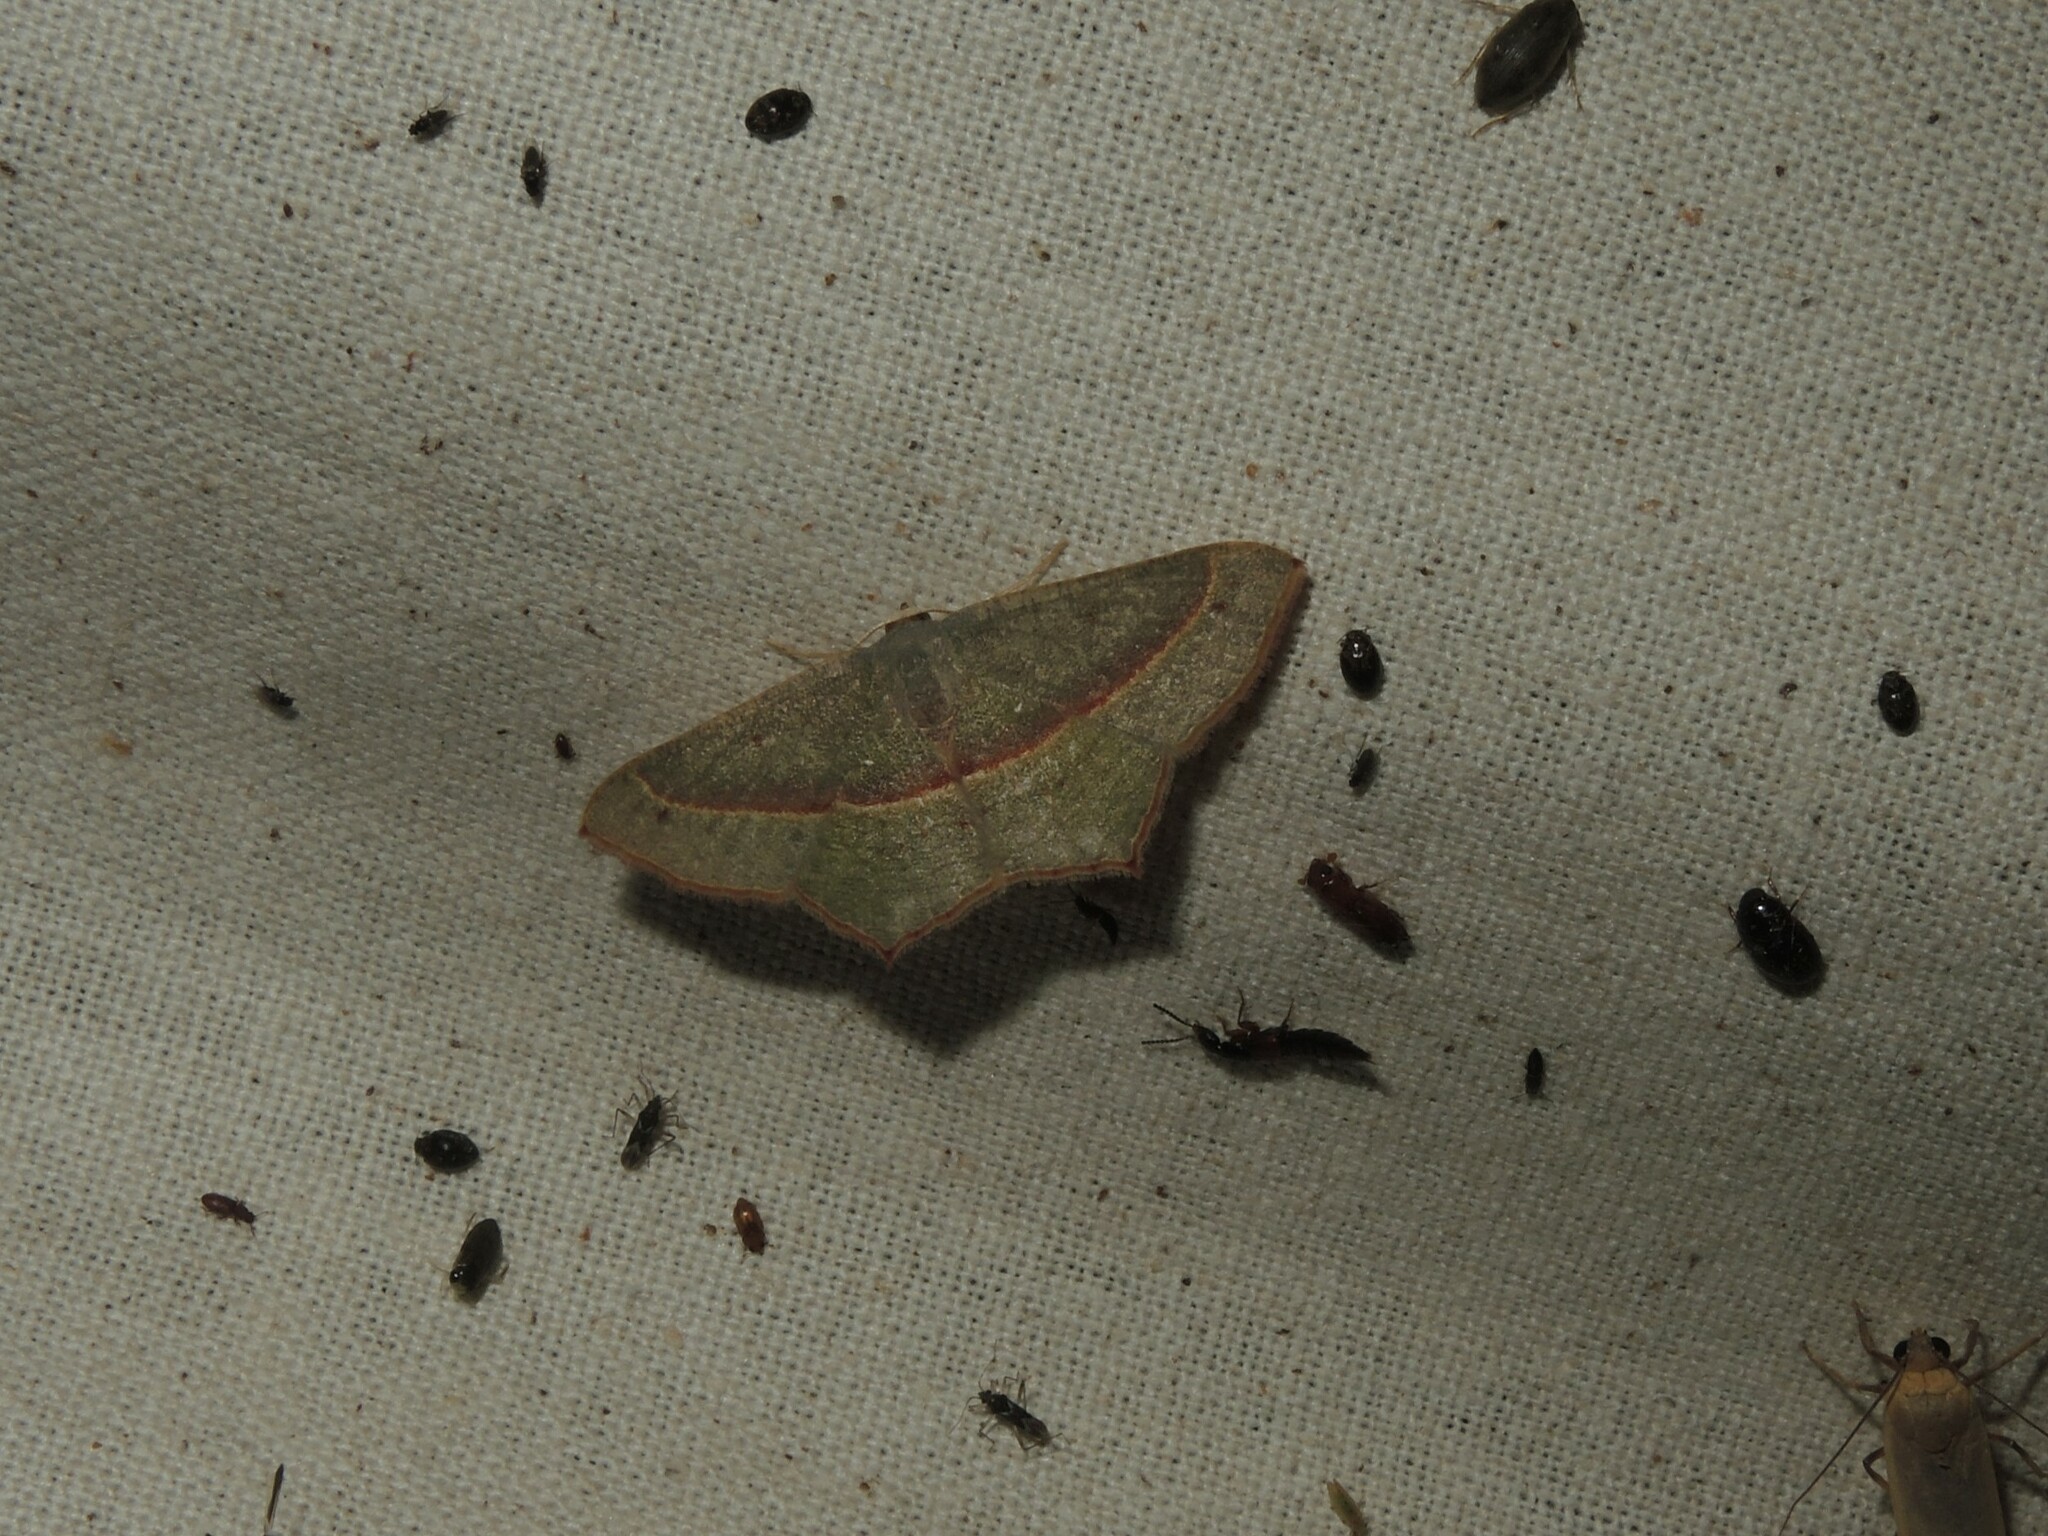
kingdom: Animalia
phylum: Arthropoda
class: Insecta
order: Lepidoptera
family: Geometridae
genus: Traminda
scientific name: Traminda mundissima
